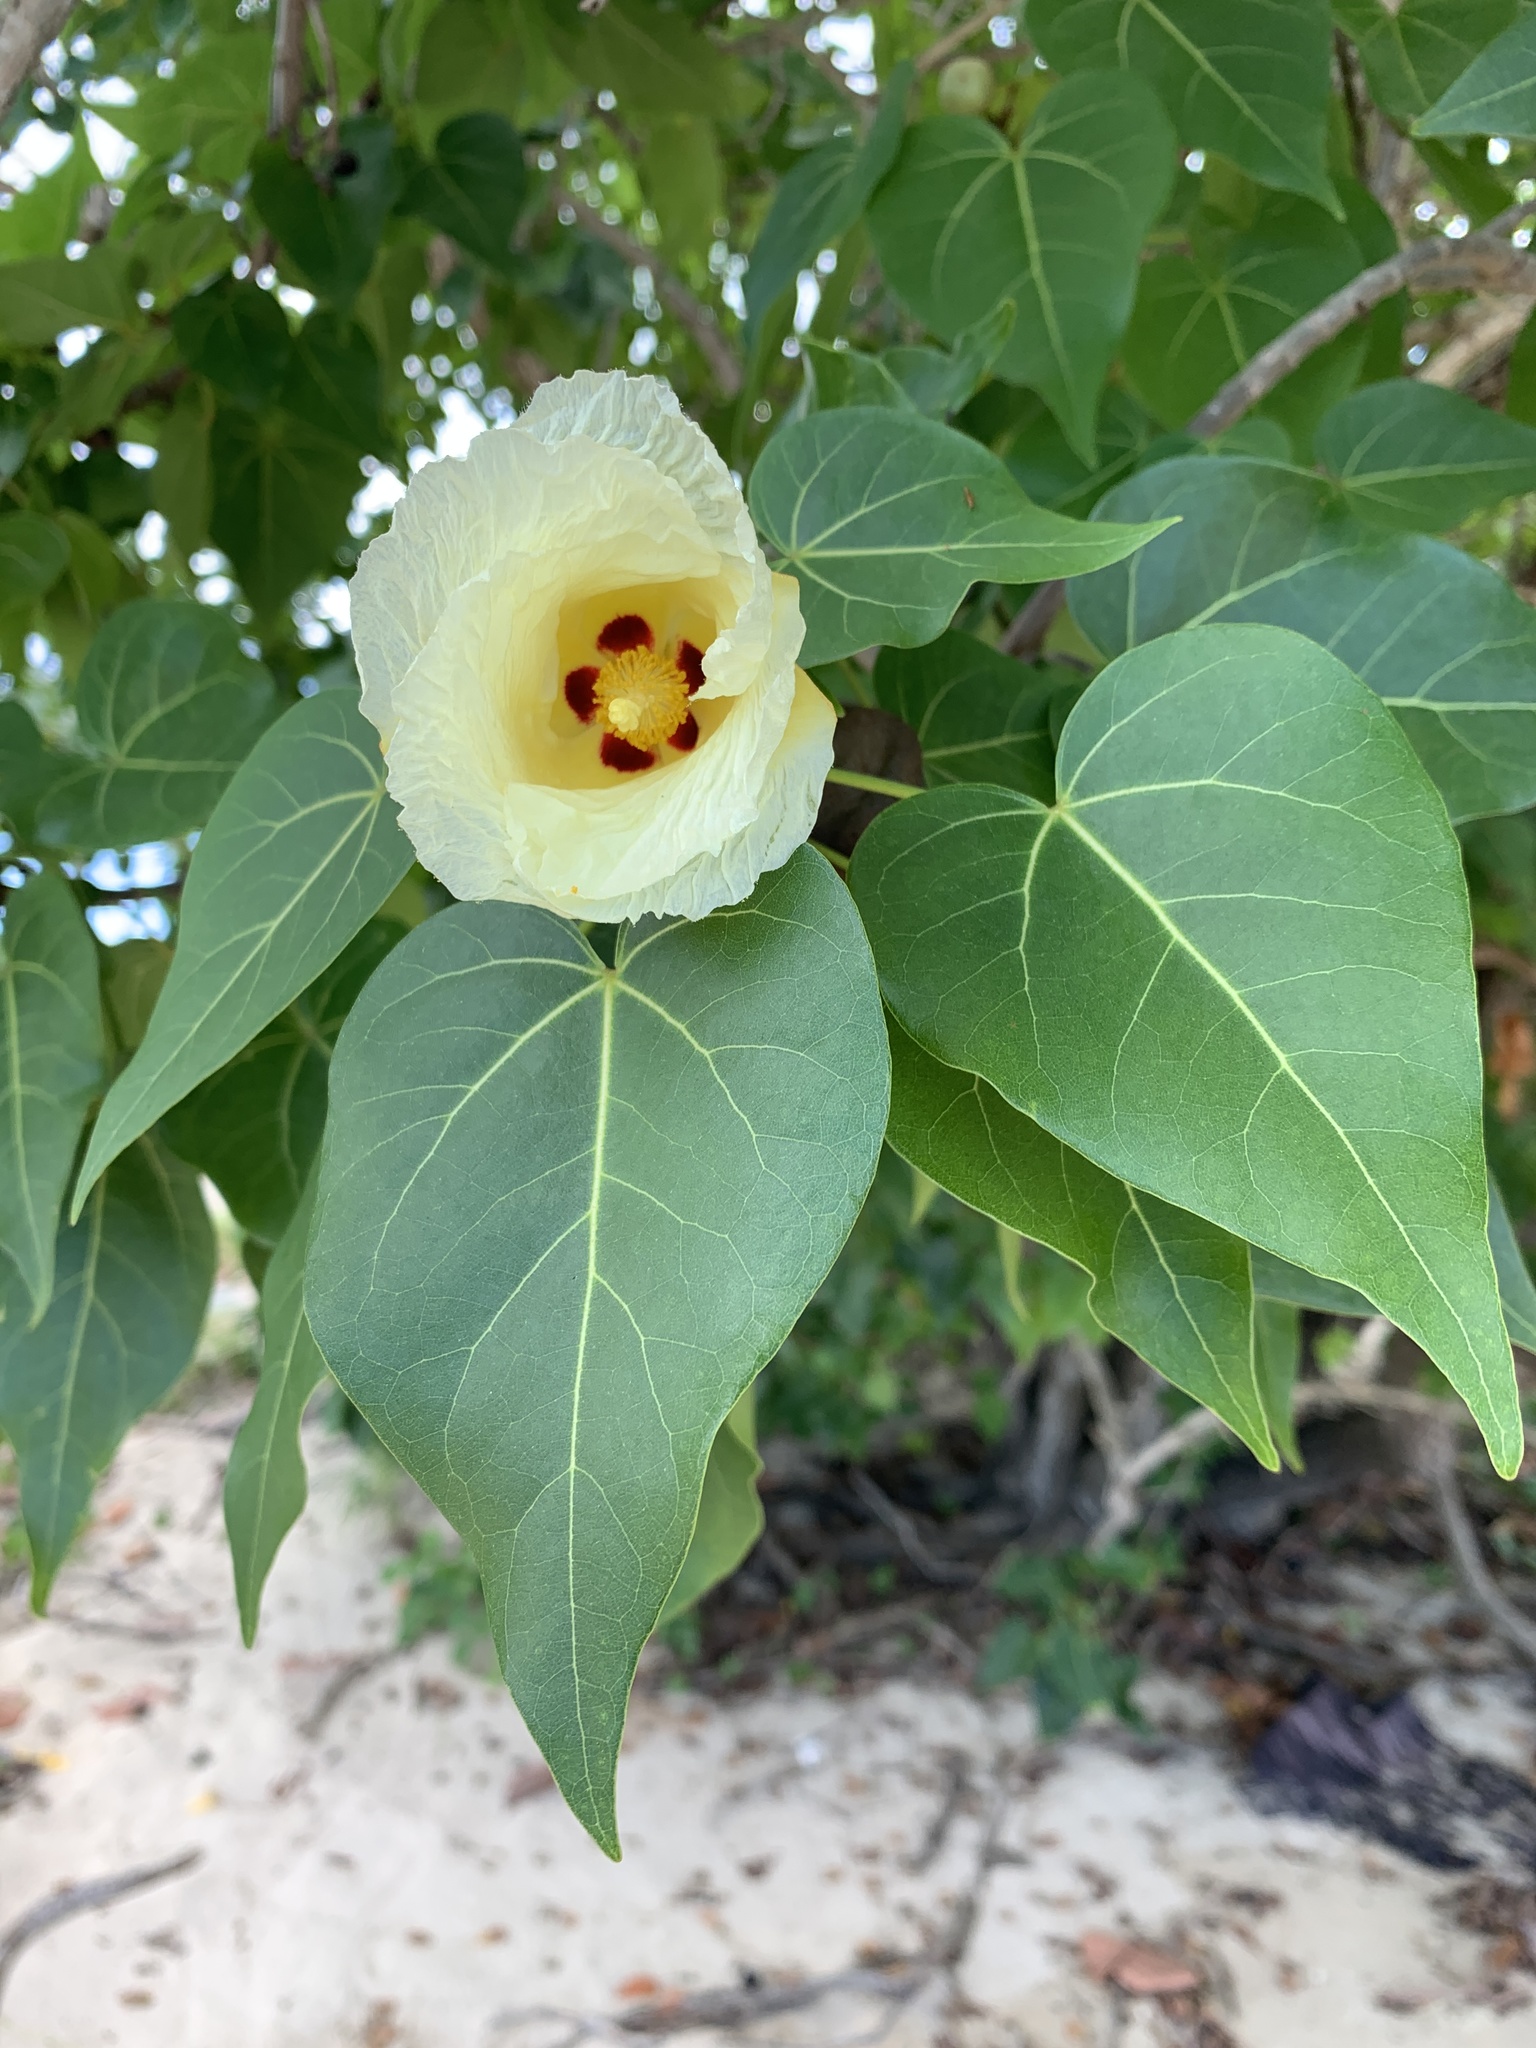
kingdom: Plantae
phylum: Tracheophyta
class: Magnoliopsida
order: Malvales
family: Malvaceae
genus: Thespesia
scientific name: Thespesia populnea
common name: Seaside mahoe
